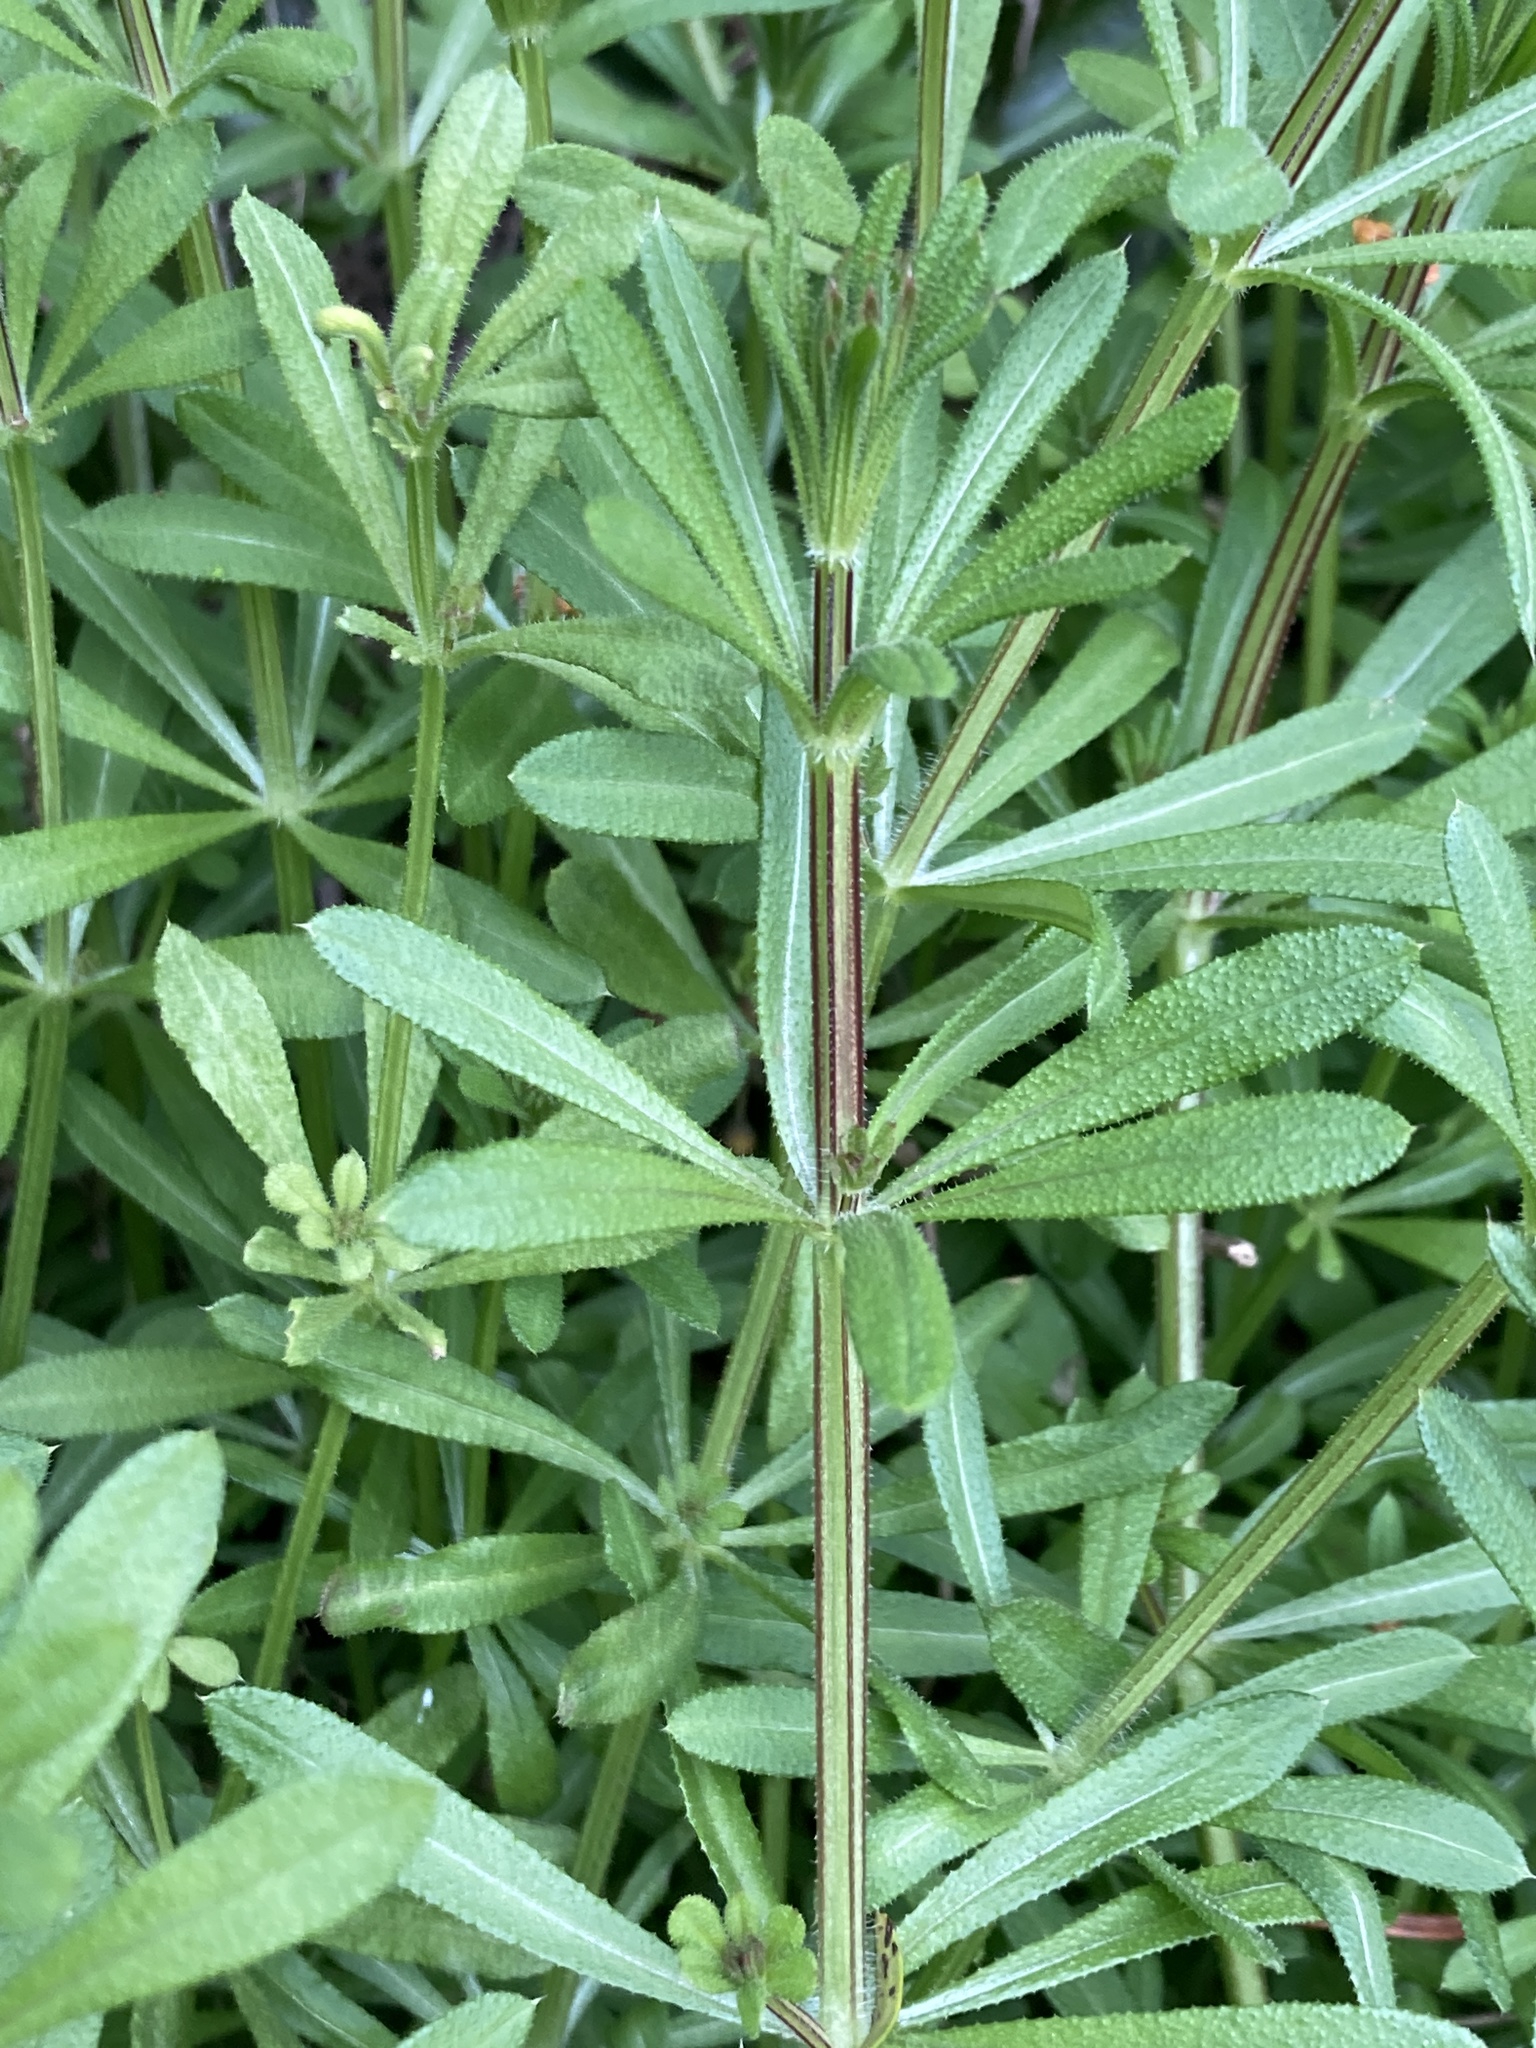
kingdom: Plantae
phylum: Tracheophyta
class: Magnoliopsida
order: Gentianales
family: Rubiaceae
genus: Galium
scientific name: Galium aparine
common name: Cleavers
